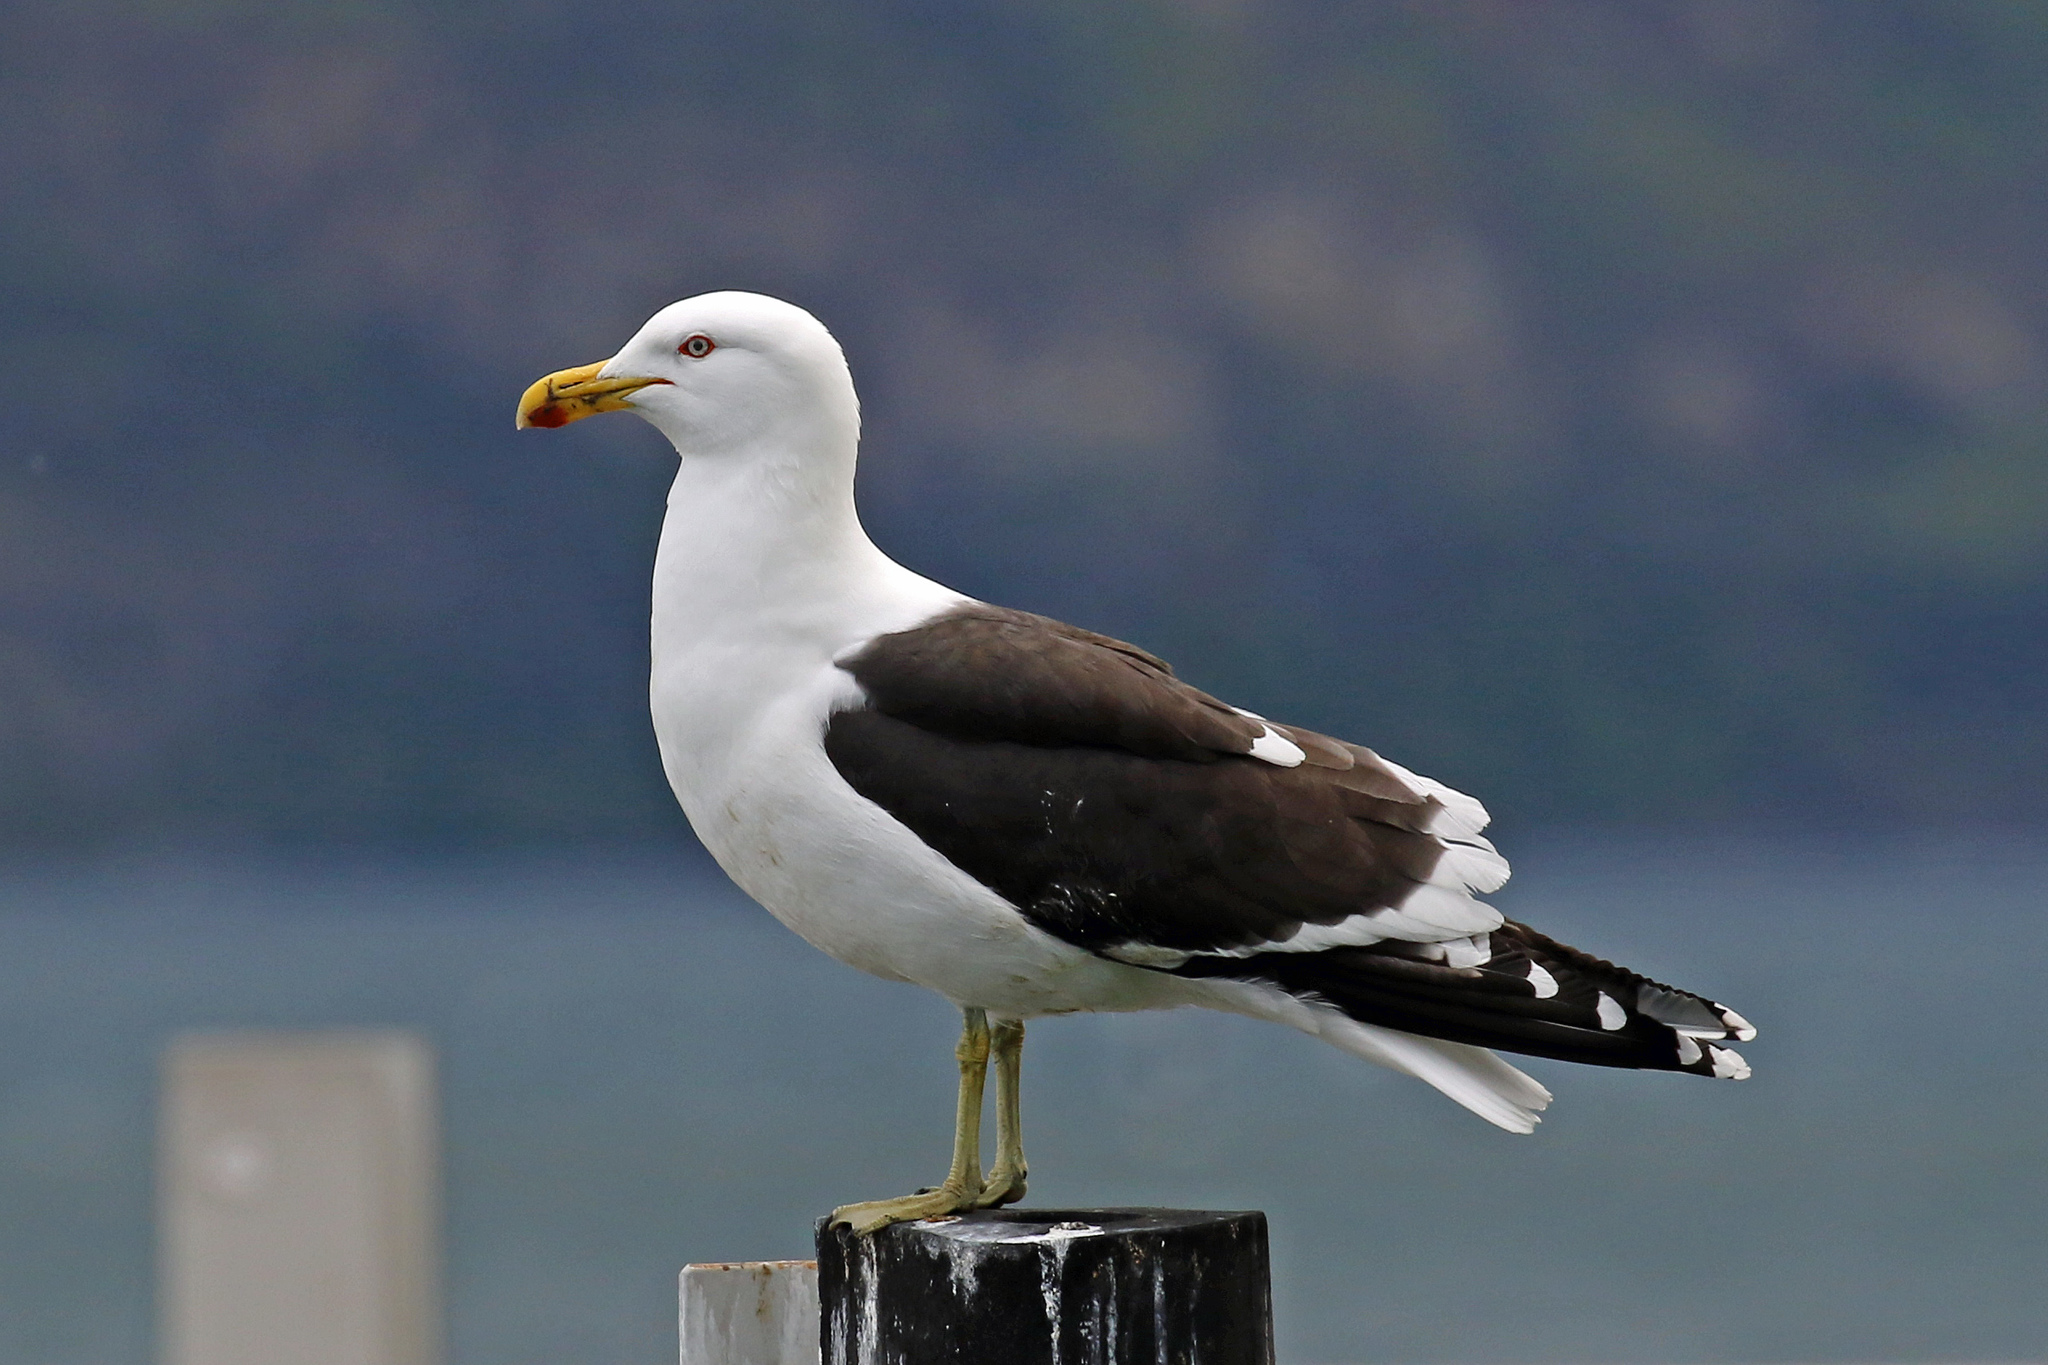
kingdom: Animalia
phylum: Chordata
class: Aves
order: Charadriiformes
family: Laridae
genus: Larus
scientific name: Larus dominicanus
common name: Kelp gull
